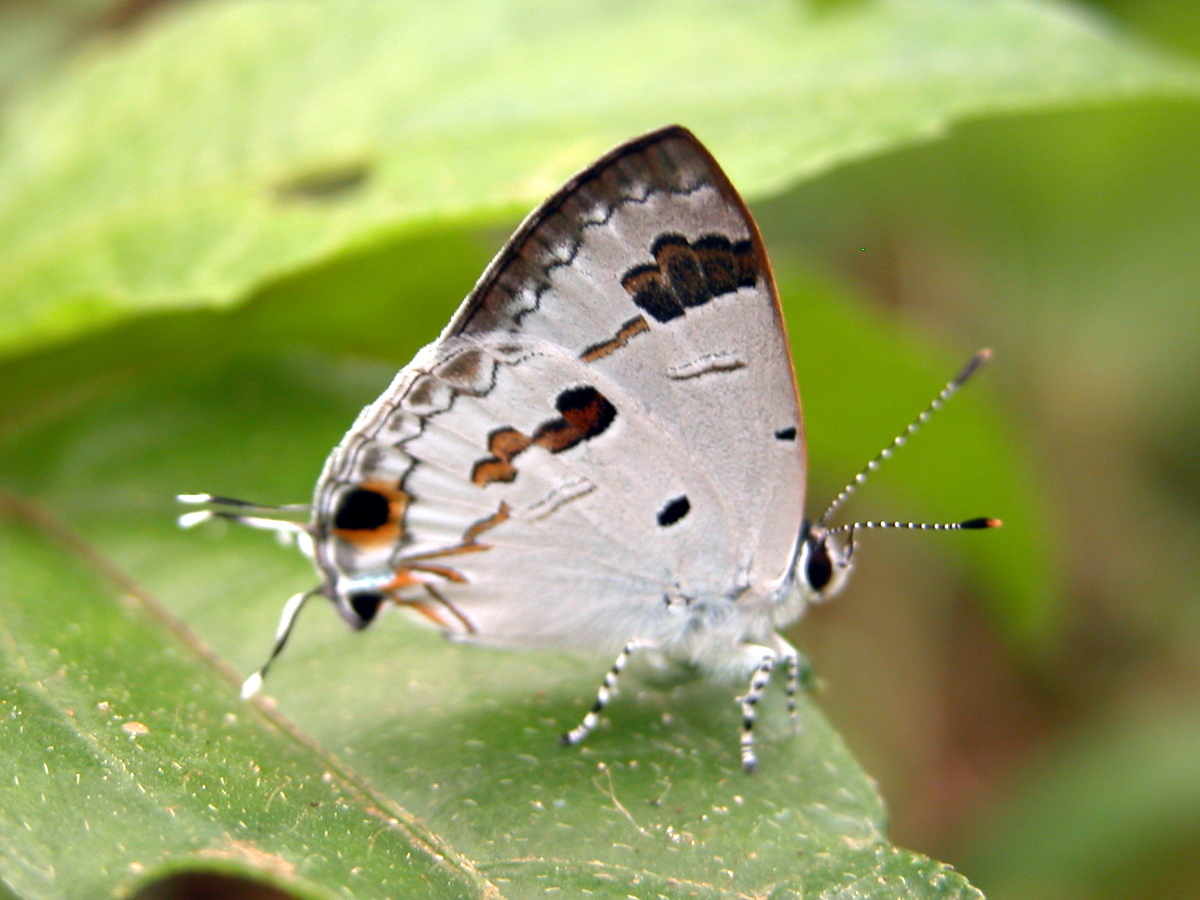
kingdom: Animalia
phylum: Arthropoda
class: Insecta
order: Lepidoptera
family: Lycaenidae
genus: Chliaria
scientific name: Chliaria othona
